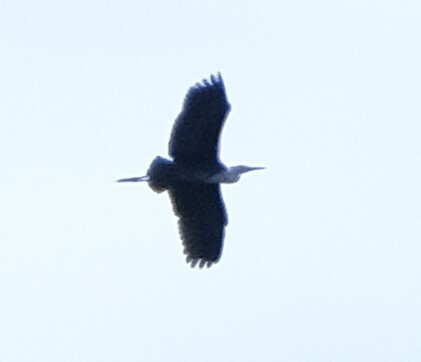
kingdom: Animalia
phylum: Chordata
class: Aves
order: Pelecaniformes
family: Ardeidae
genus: Ardea
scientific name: Ardea pacifica
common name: White-necked heron
